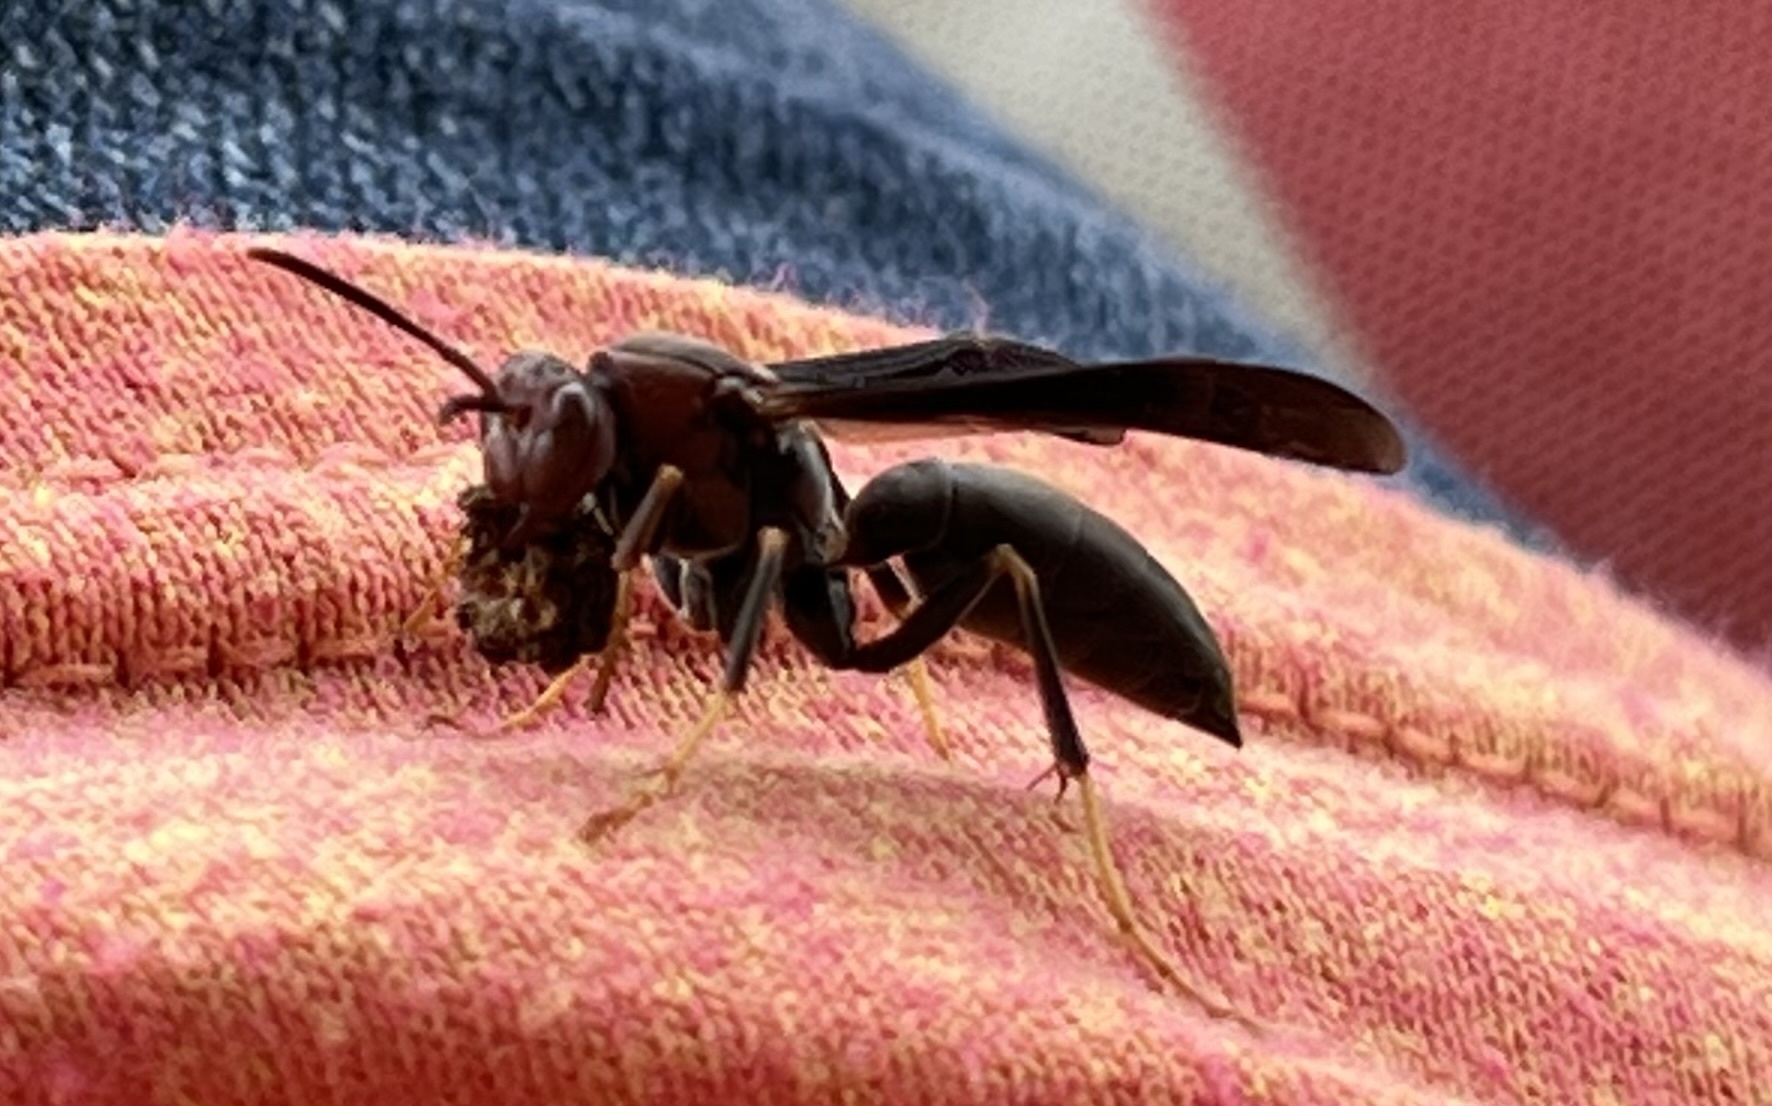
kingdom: Animalia
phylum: Arthropoda
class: Insecta
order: Hymenoptera
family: Eumenidae
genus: Polistes
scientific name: Polistes metricus
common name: Metric paper wasp
